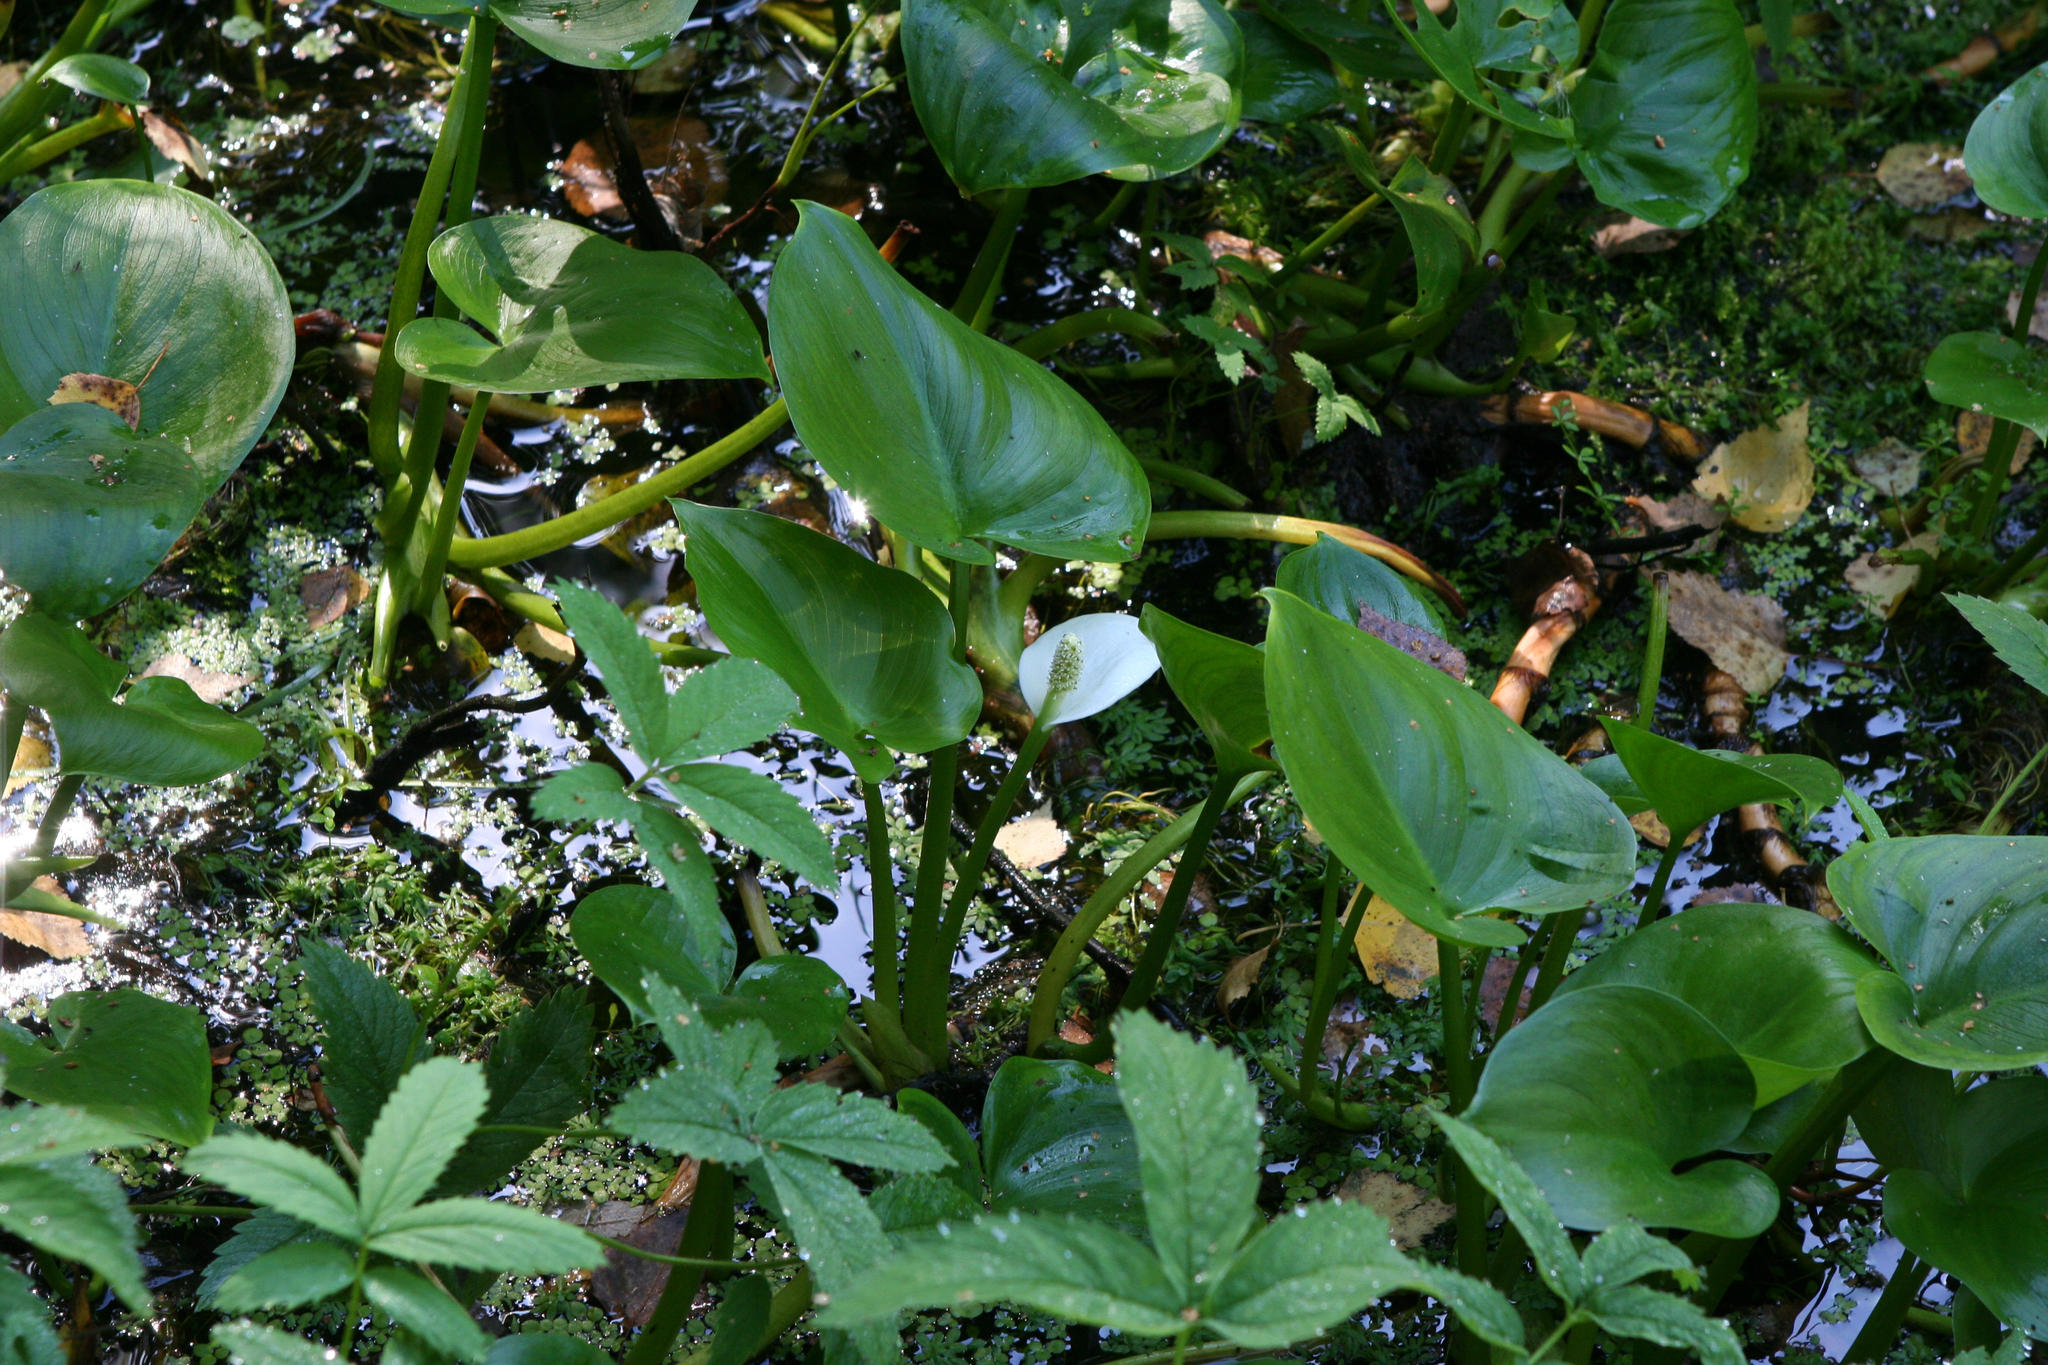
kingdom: Plantae
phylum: Tracheophyta
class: Liliopsida
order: Alismatales
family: Araceae
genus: Calla
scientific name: Calla palustris
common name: Bog arum
